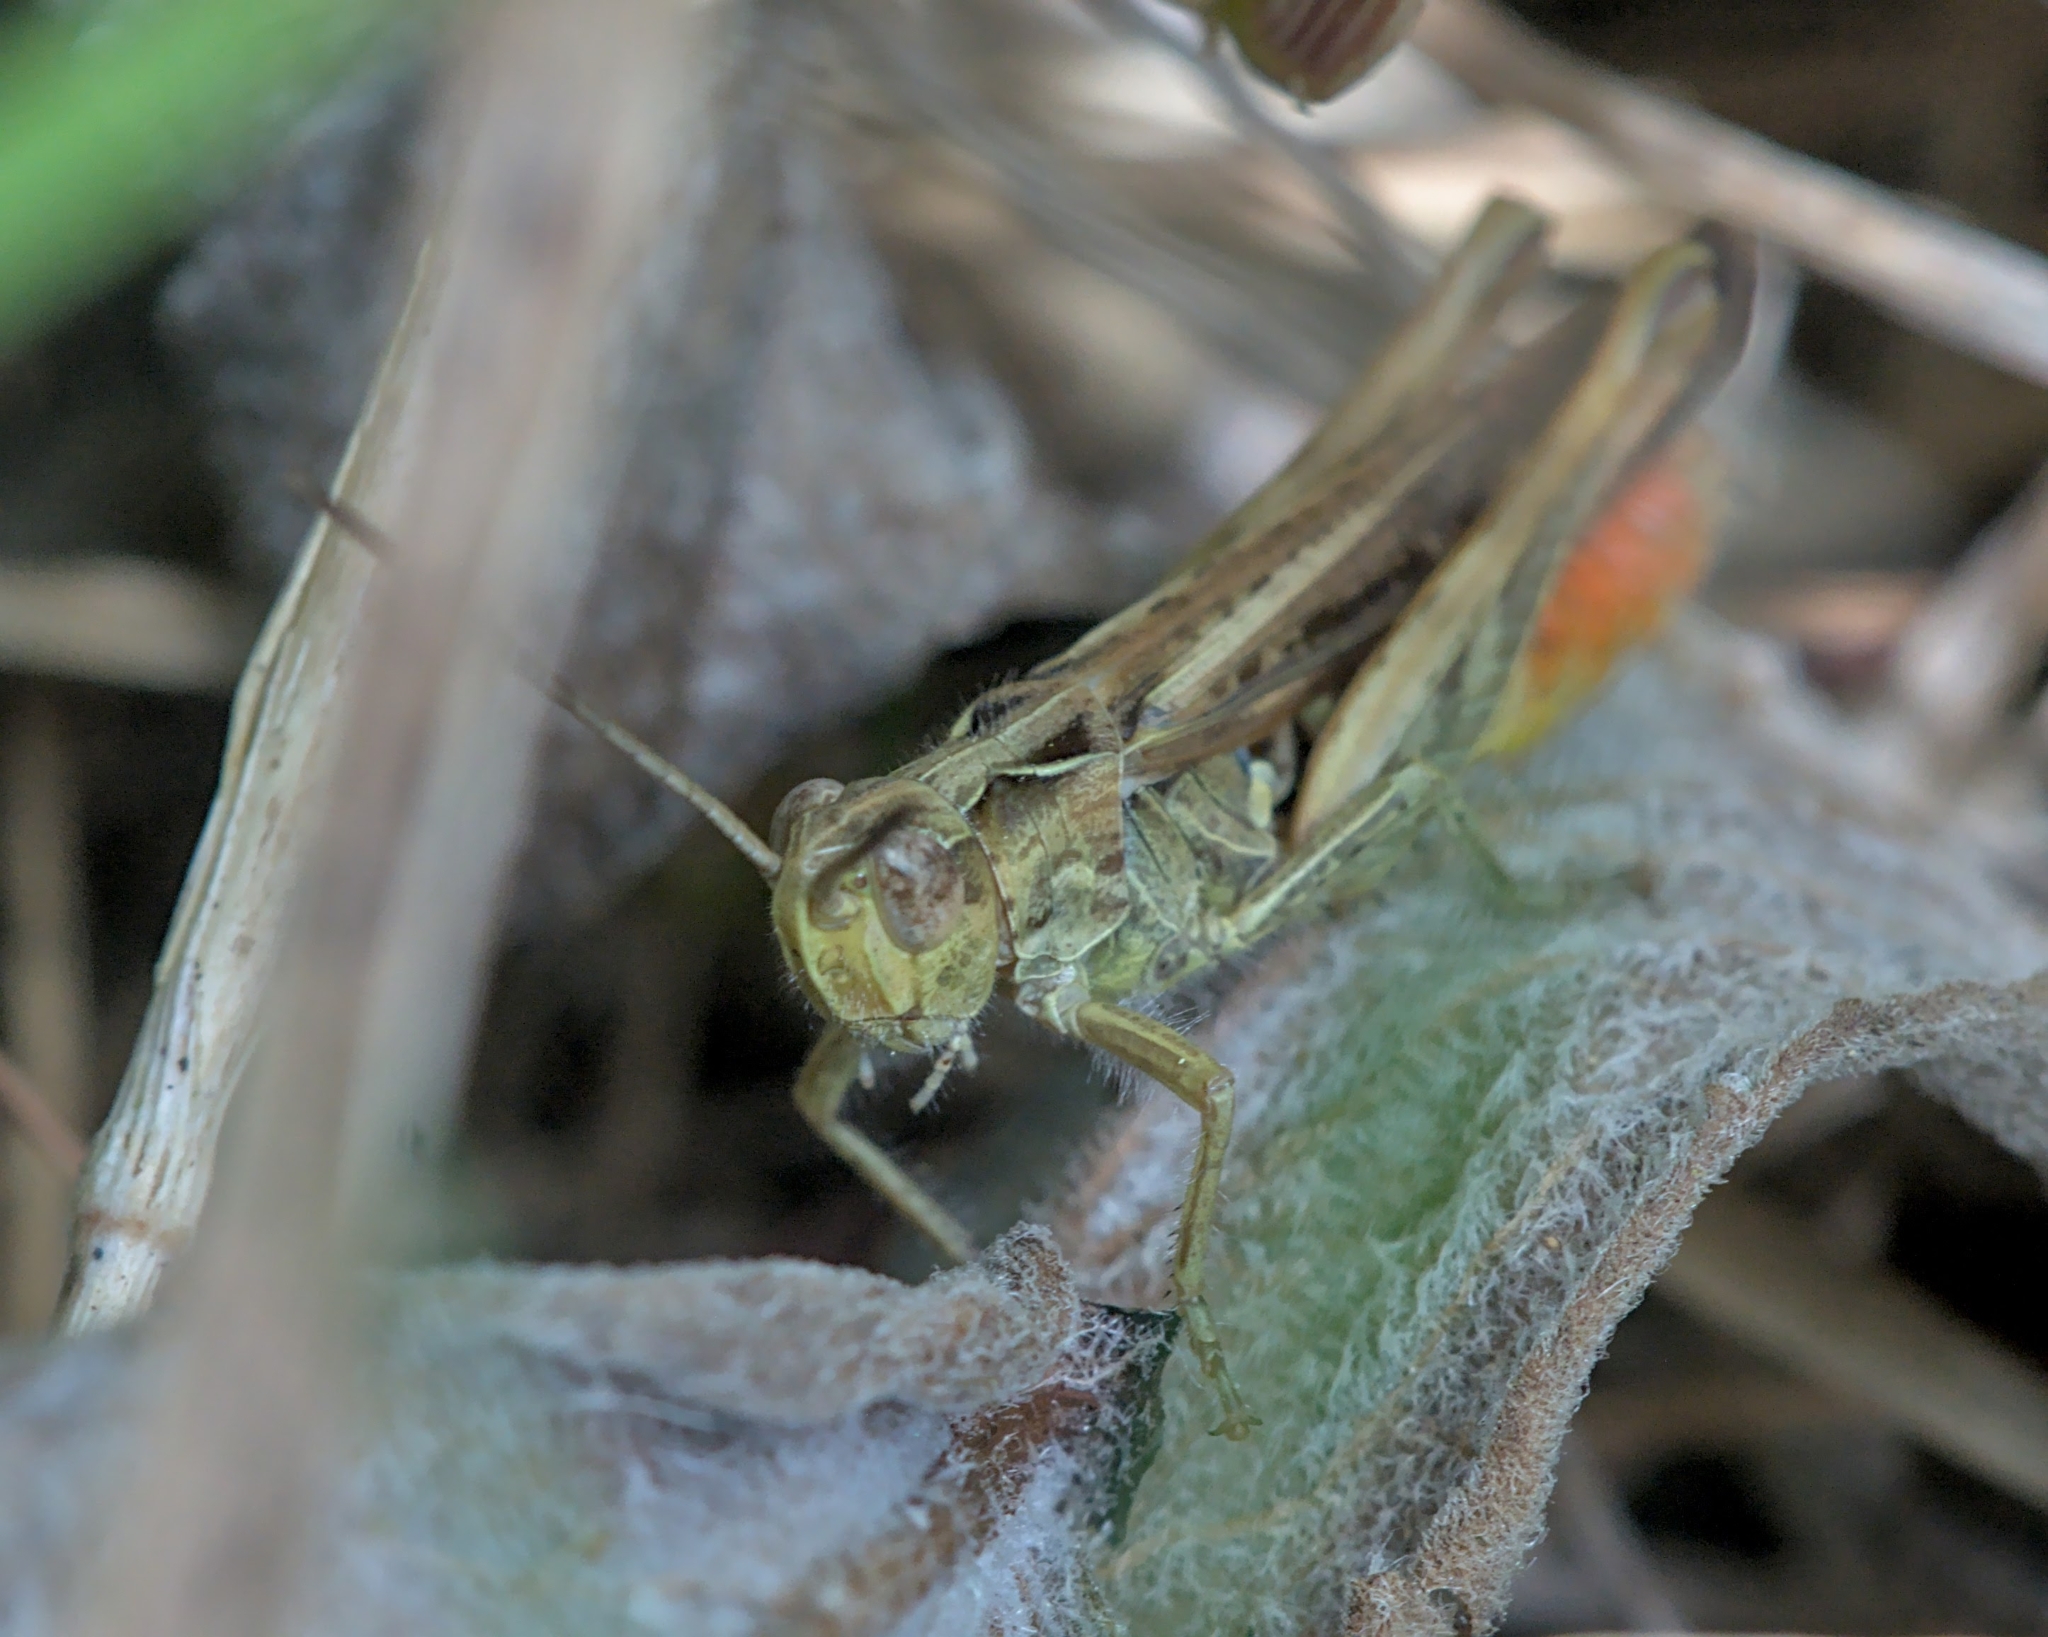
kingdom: Animalia
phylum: Arthropoda
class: Insecta
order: Orthoptera
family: Acrididae
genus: Chorthippus
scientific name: Chorthippus brunneus
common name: Field grasshopper
